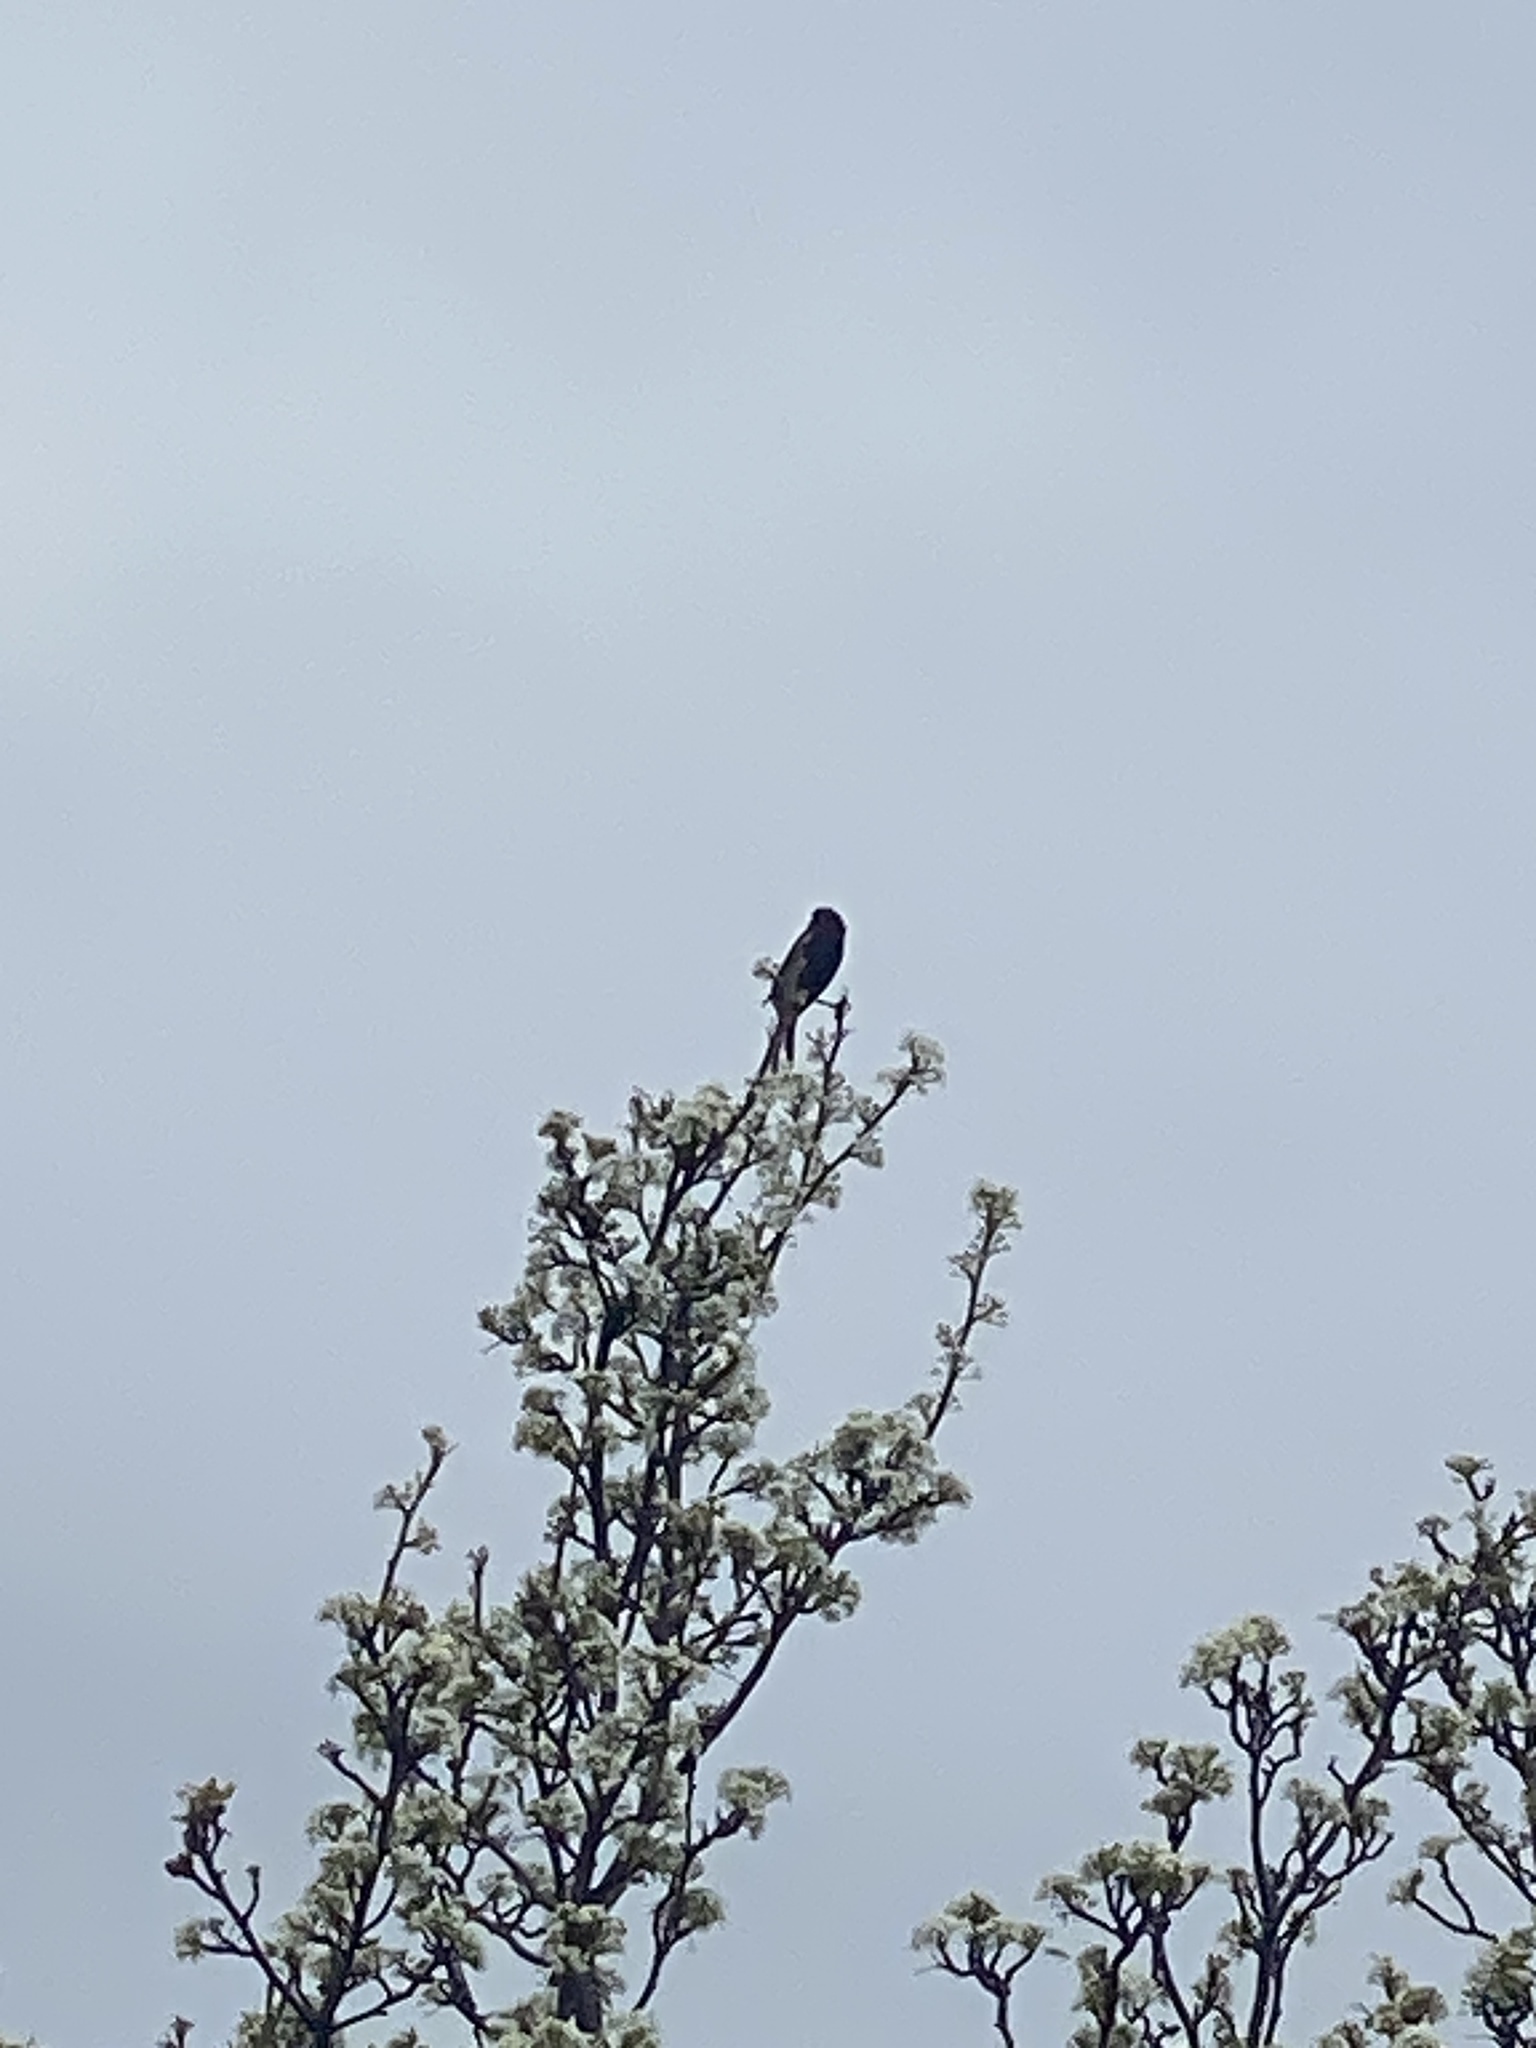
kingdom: Animalia
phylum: Chordata
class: Aves
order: Passeriformes
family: Icteridae
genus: Agelaius
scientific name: Agelaius phoeniceus
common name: Red-winged blackbird
